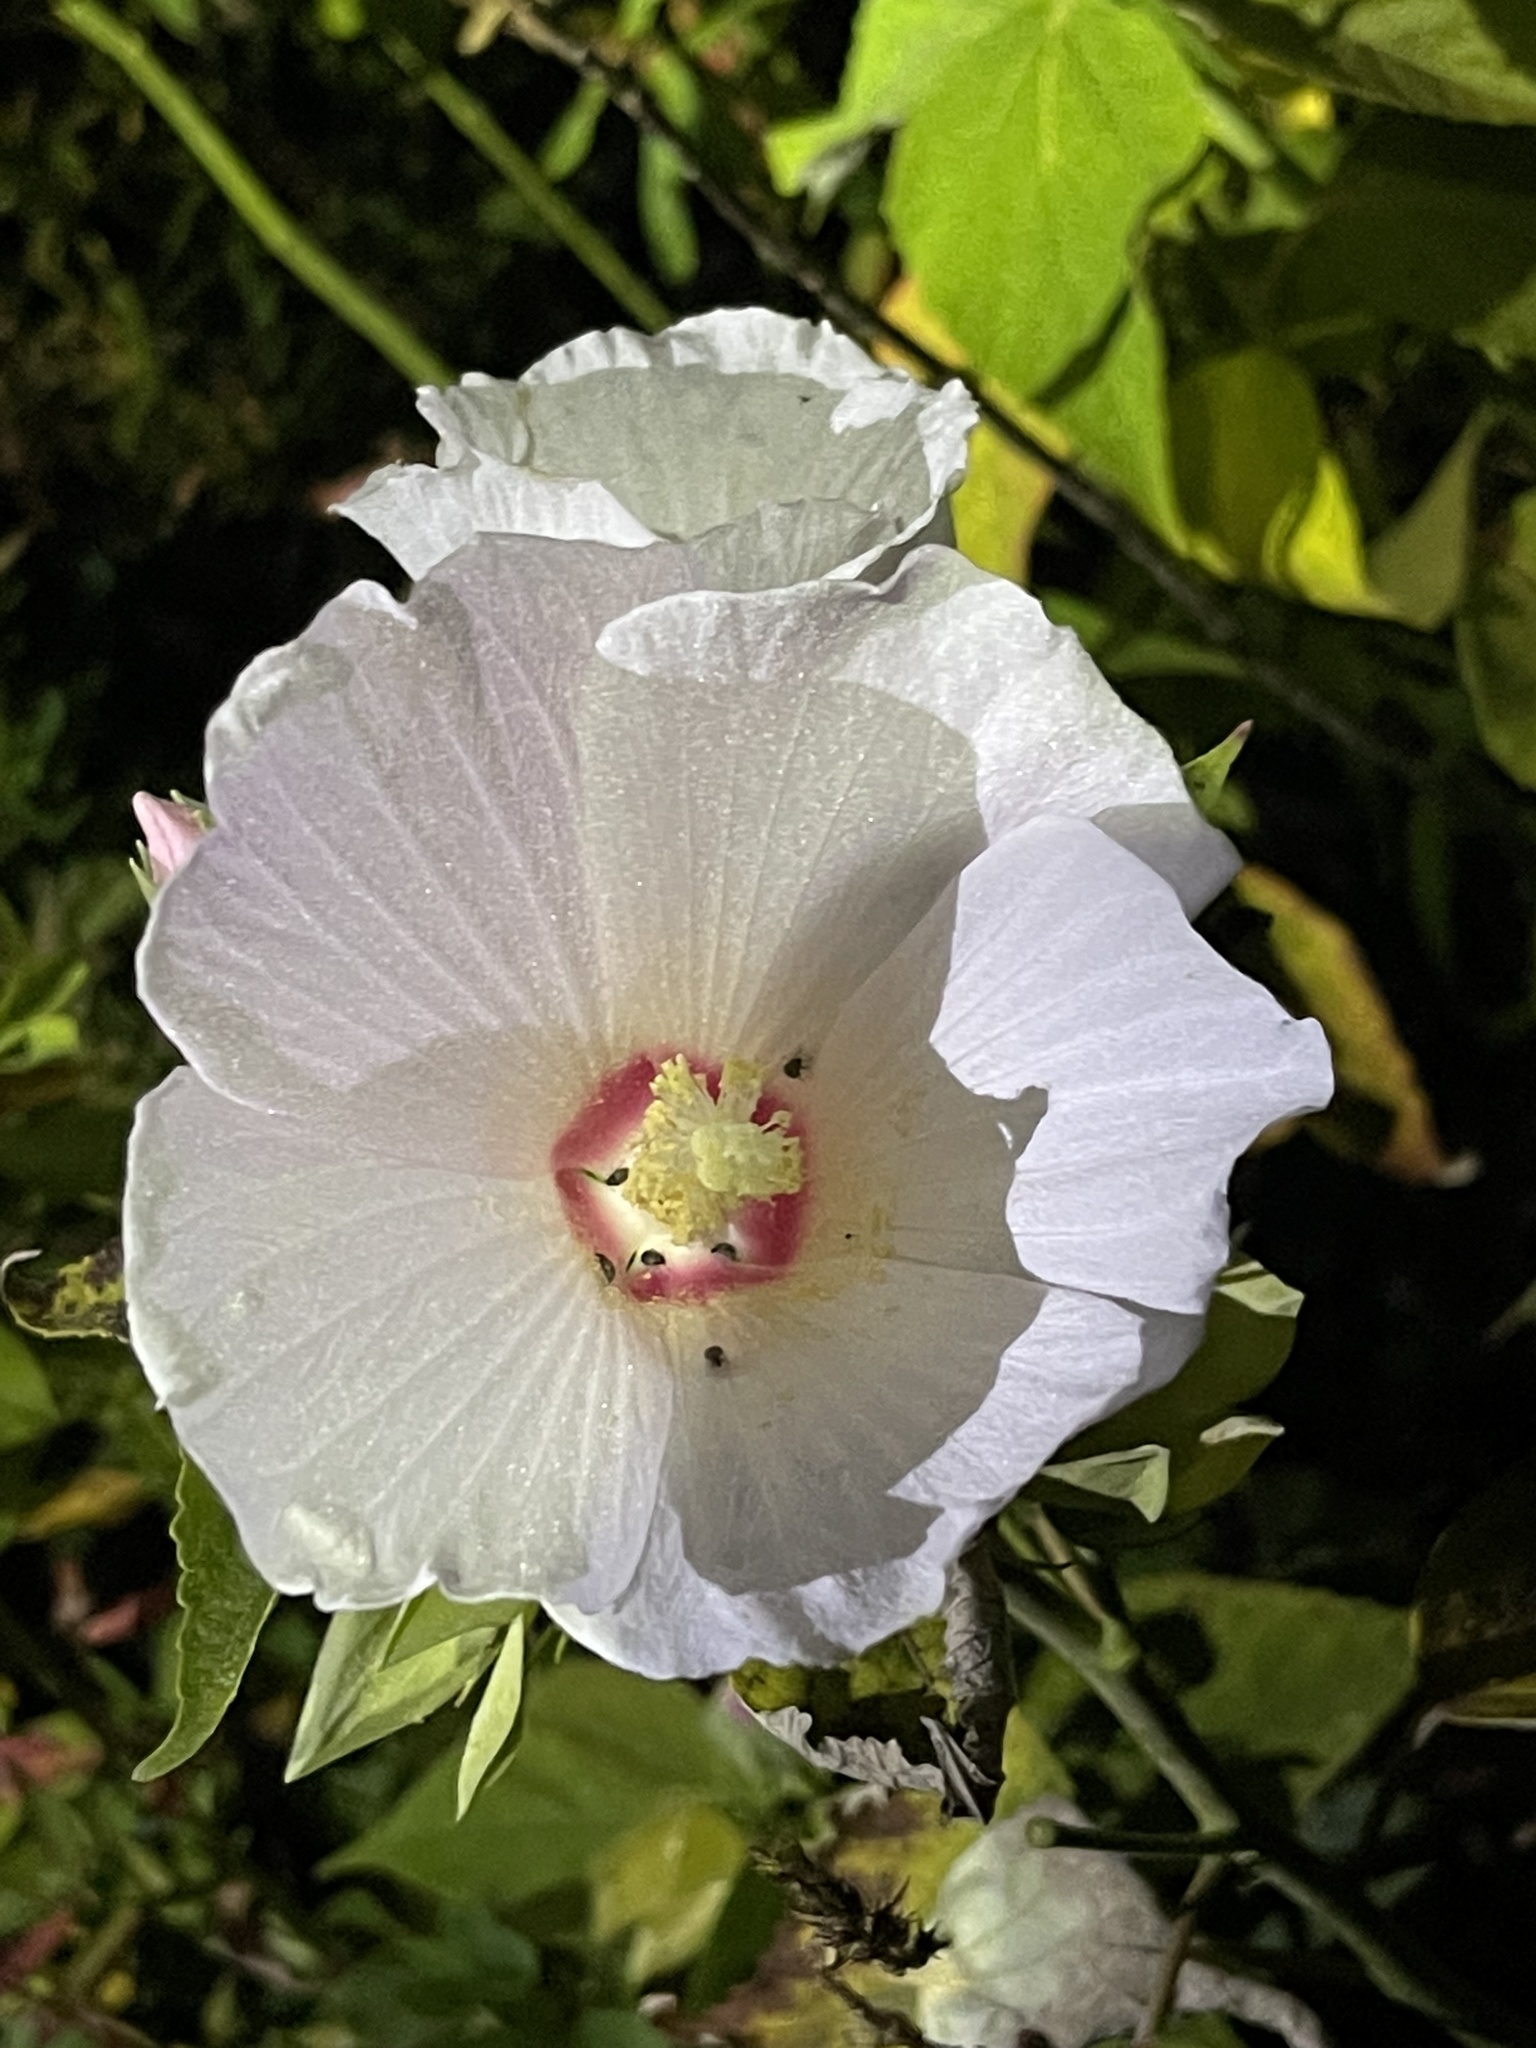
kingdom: Plantae
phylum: Tracheophyta
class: Magnoliopsida
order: Malvales
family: Malvaceae
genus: Hibiscus
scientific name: Hibiscus moscheutos
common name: Common rose-mallow
